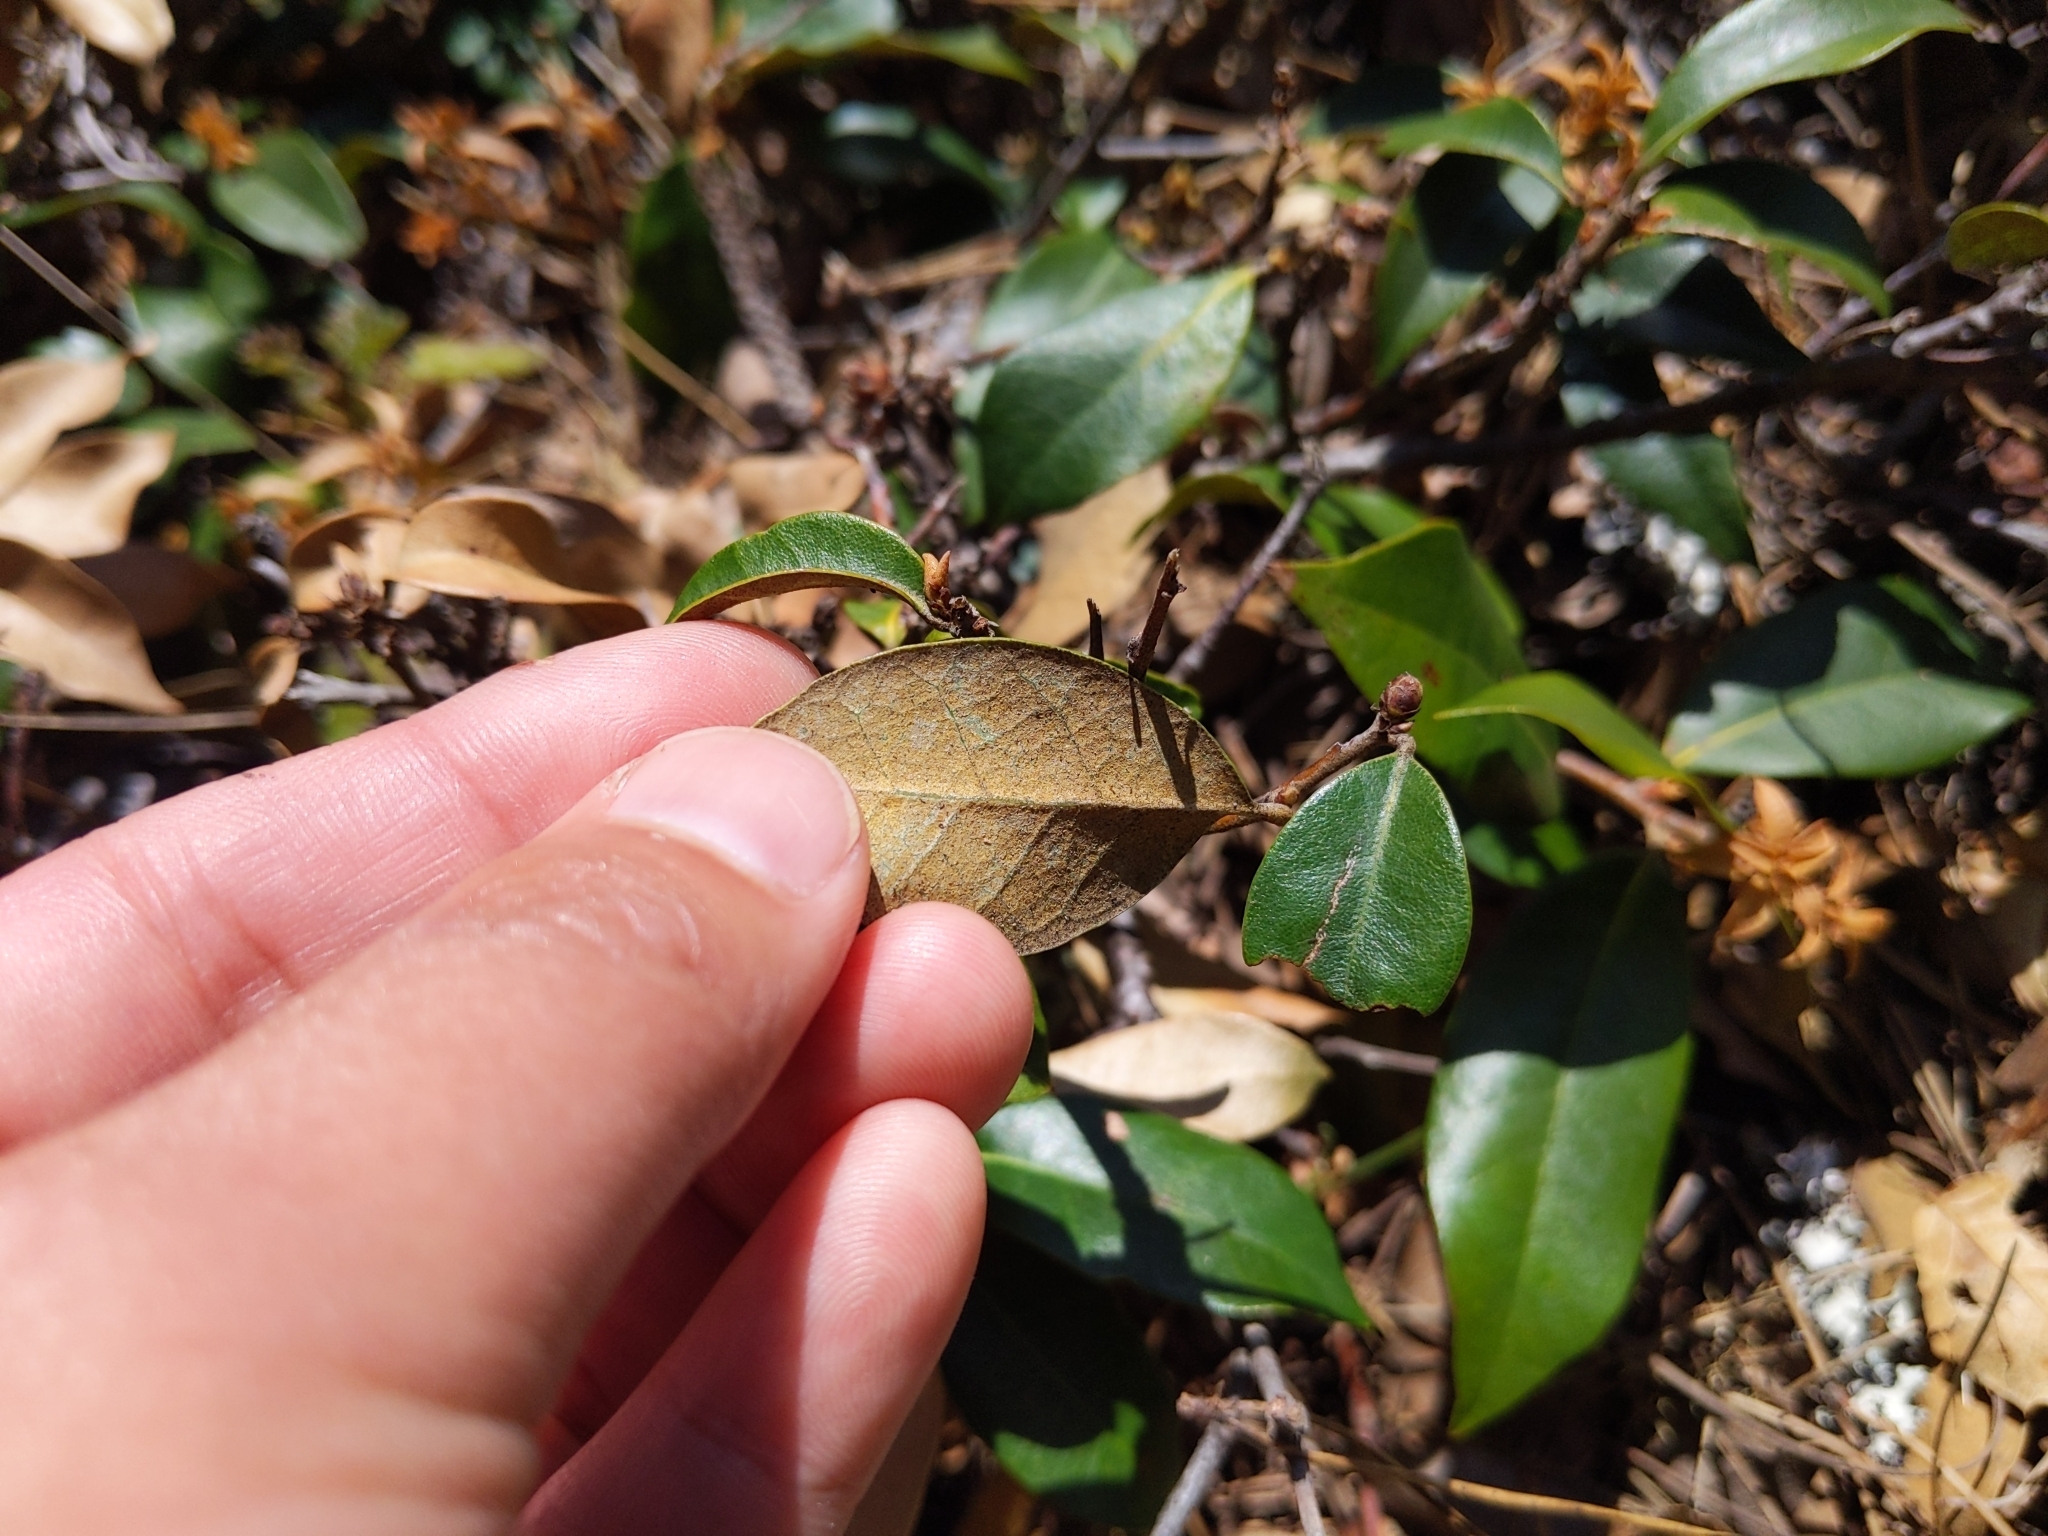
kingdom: Plantae
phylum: Tracheophyta
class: Magnoliopsida
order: Fagales
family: Fagaceae
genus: Chrysolepis
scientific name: Chrysolepis chrysophylla
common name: Giant chinquapin
